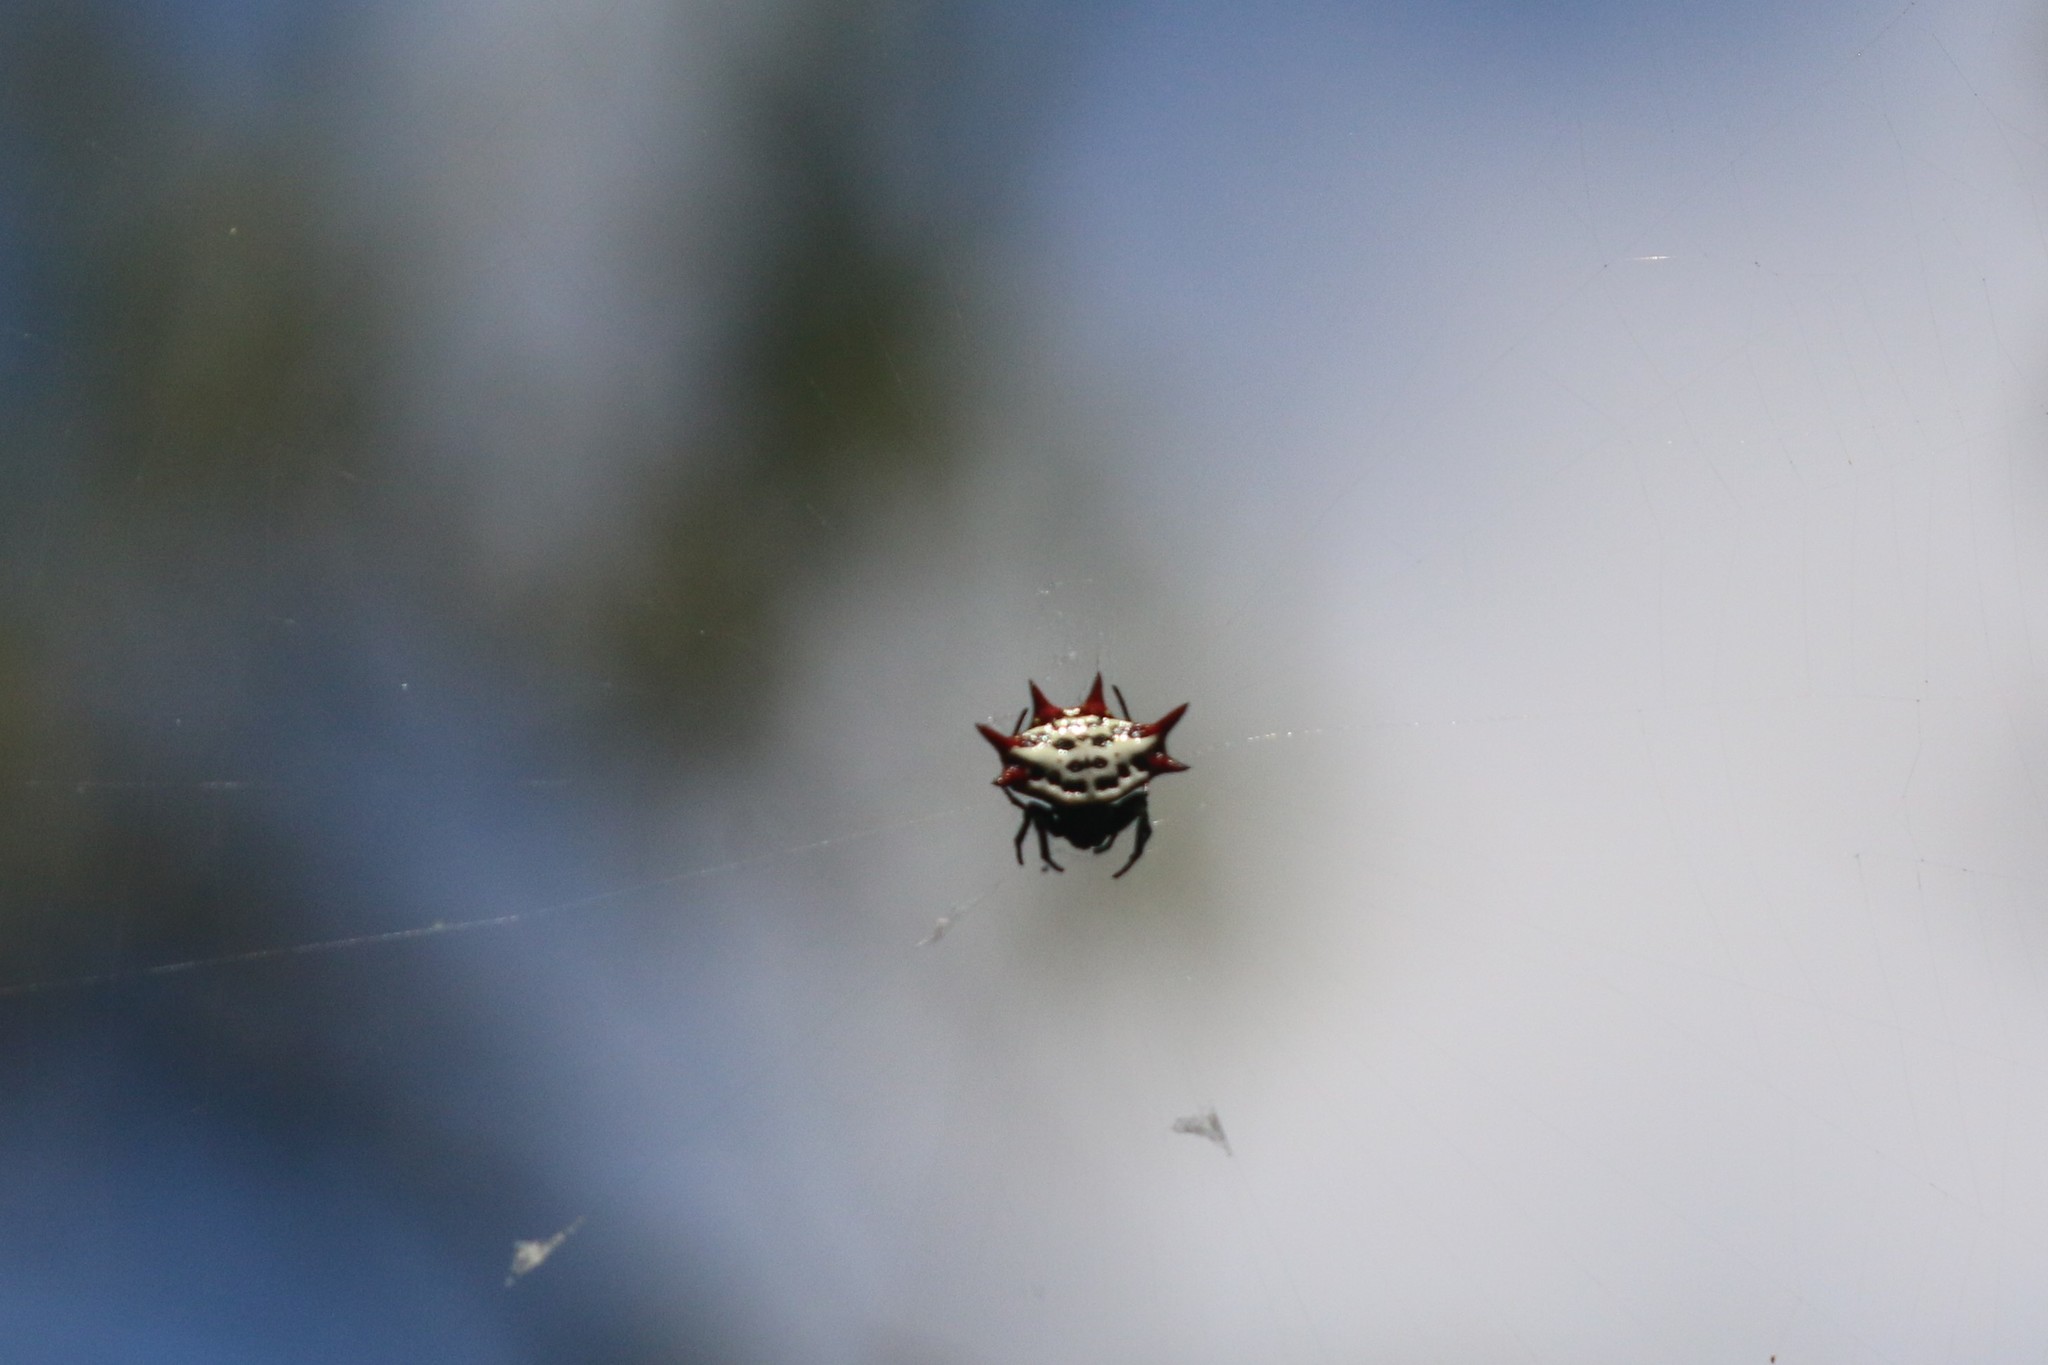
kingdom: Animalia
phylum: Arthropoda
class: Arachnida
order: Araneae
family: Araneidae
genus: Gasteracantha
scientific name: Gasteracantha cancriformis
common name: Orb weavers
